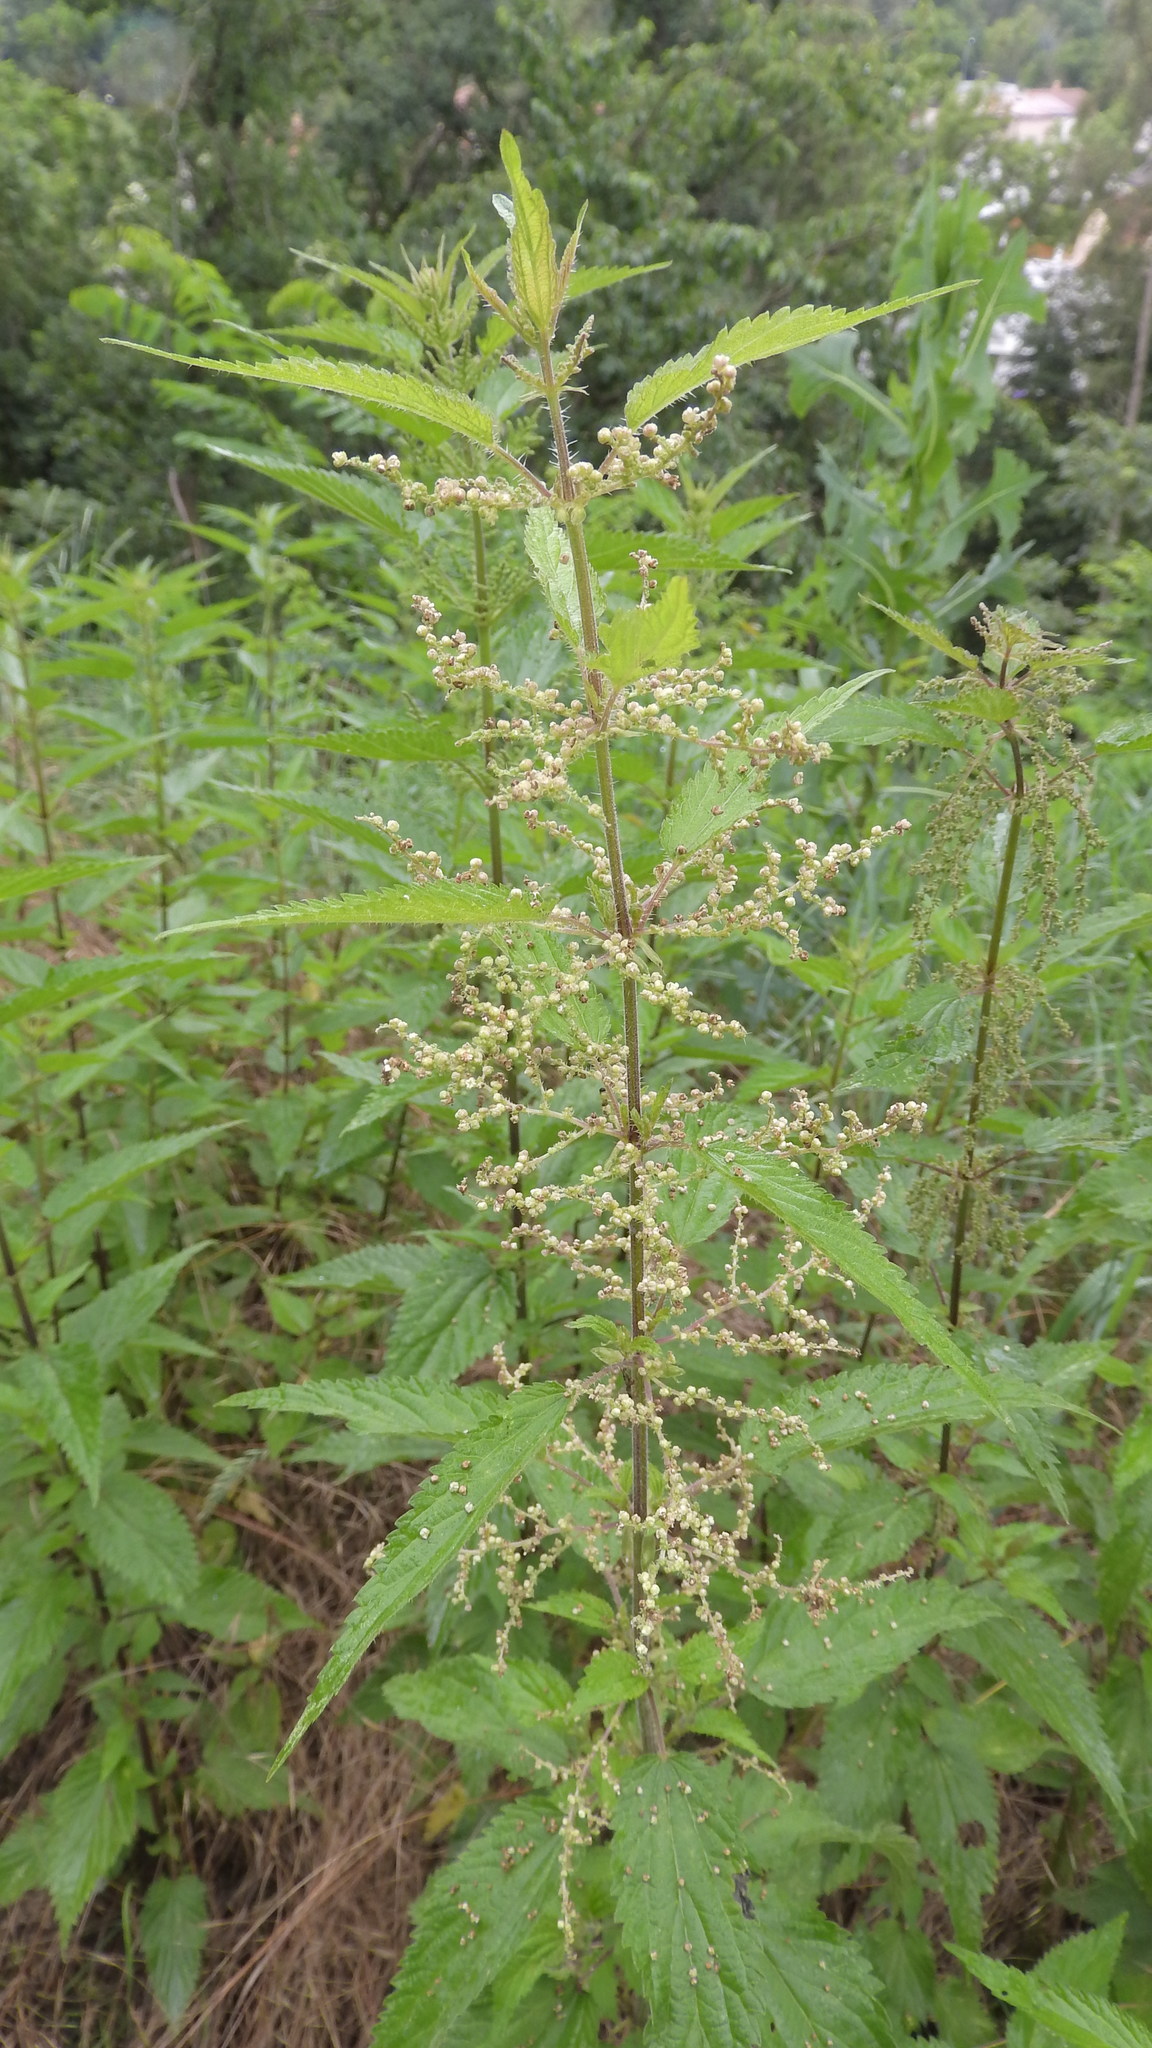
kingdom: Plantae
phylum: Tracheophyta
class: Magnoliopsida
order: Rosales
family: Urticaceae
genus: Urtica
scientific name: Urtica dioica
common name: Common nettle
